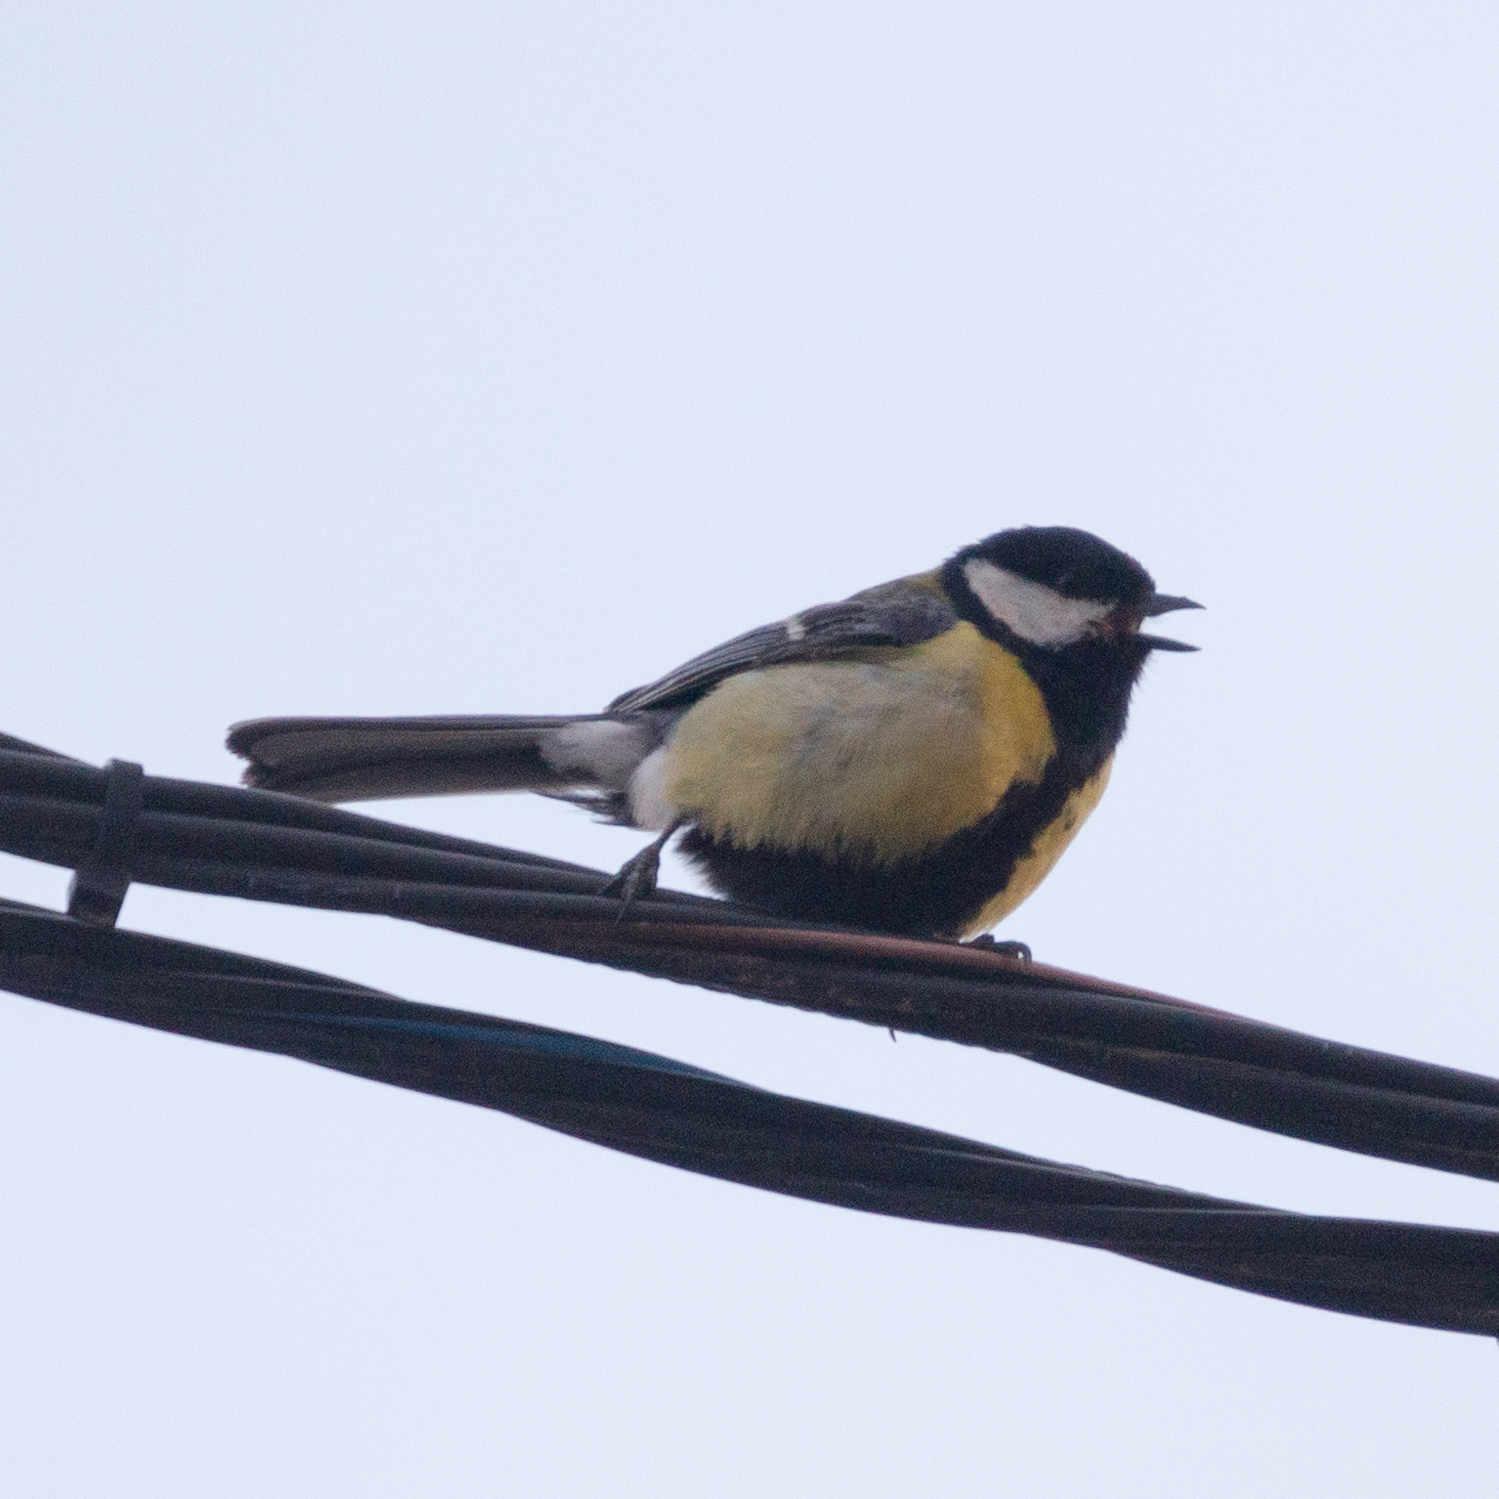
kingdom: Animalia
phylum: Chordata
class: Aves
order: Passeriformes
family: Paridae
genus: Parus
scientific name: Parus major
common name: Great tit
